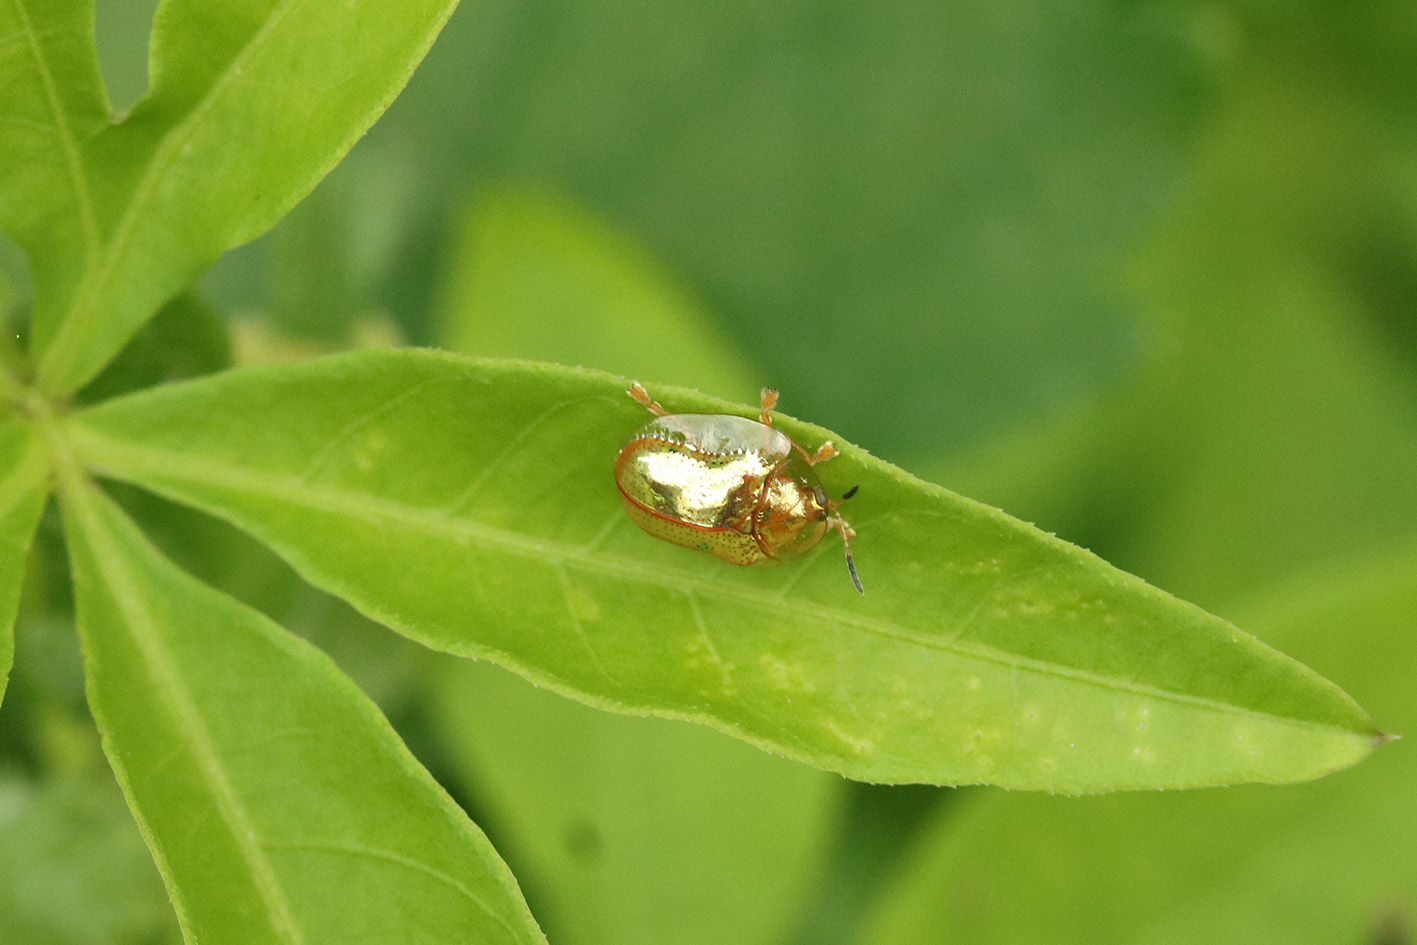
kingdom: Animalia
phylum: Arthropoda
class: Insecta
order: Coleoptera
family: Chrysomelidae
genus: Charidotella
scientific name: Charidotella sexpunctata
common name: Golden tortoise beetle
